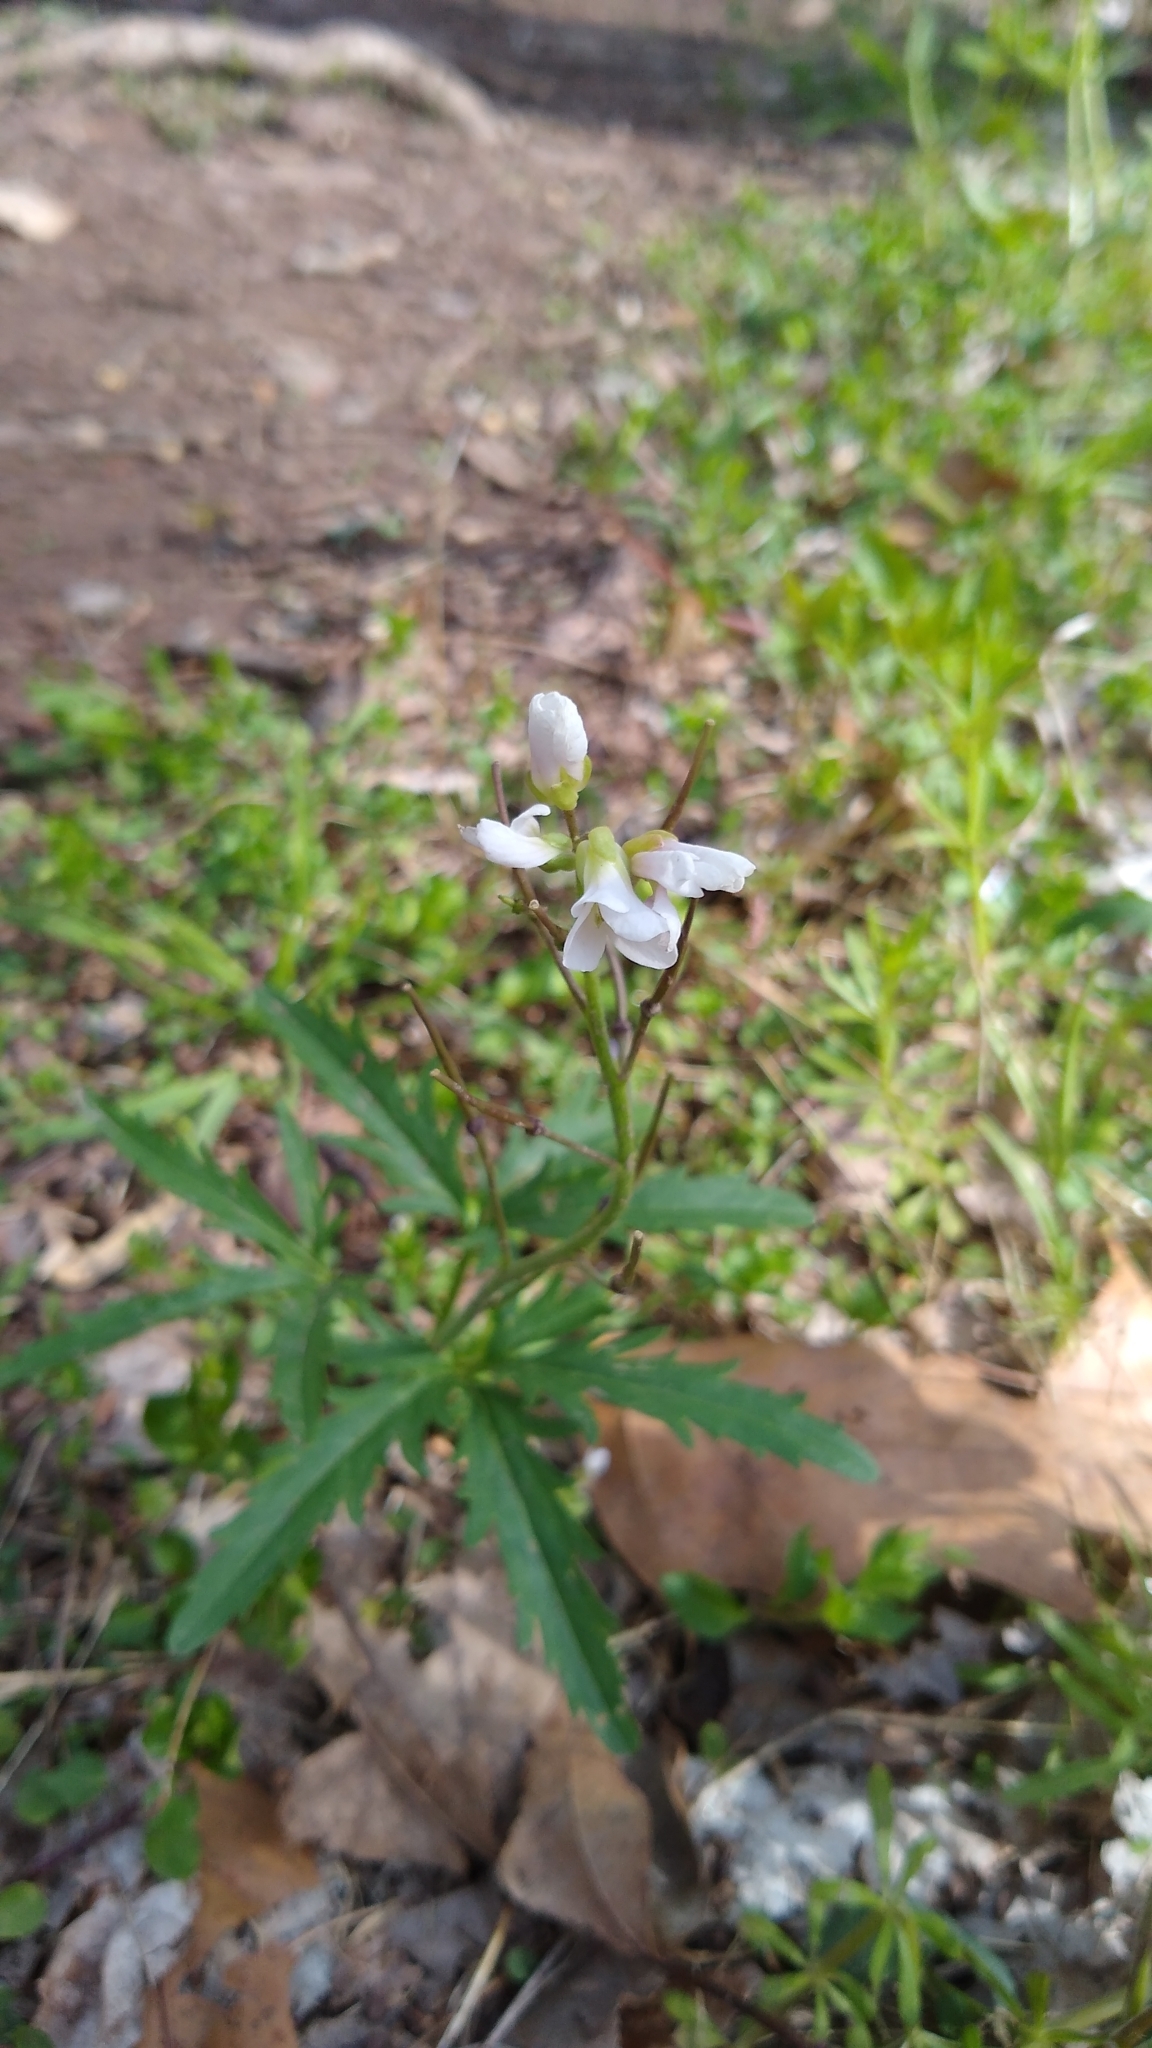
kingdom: Plantae
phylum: Tracheophyta
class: Magnoliopsida
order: Brassicales
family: Brassicaceae
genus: Cardamine
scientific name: Cardamine concatenata
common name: Cut-leaf toothcup
